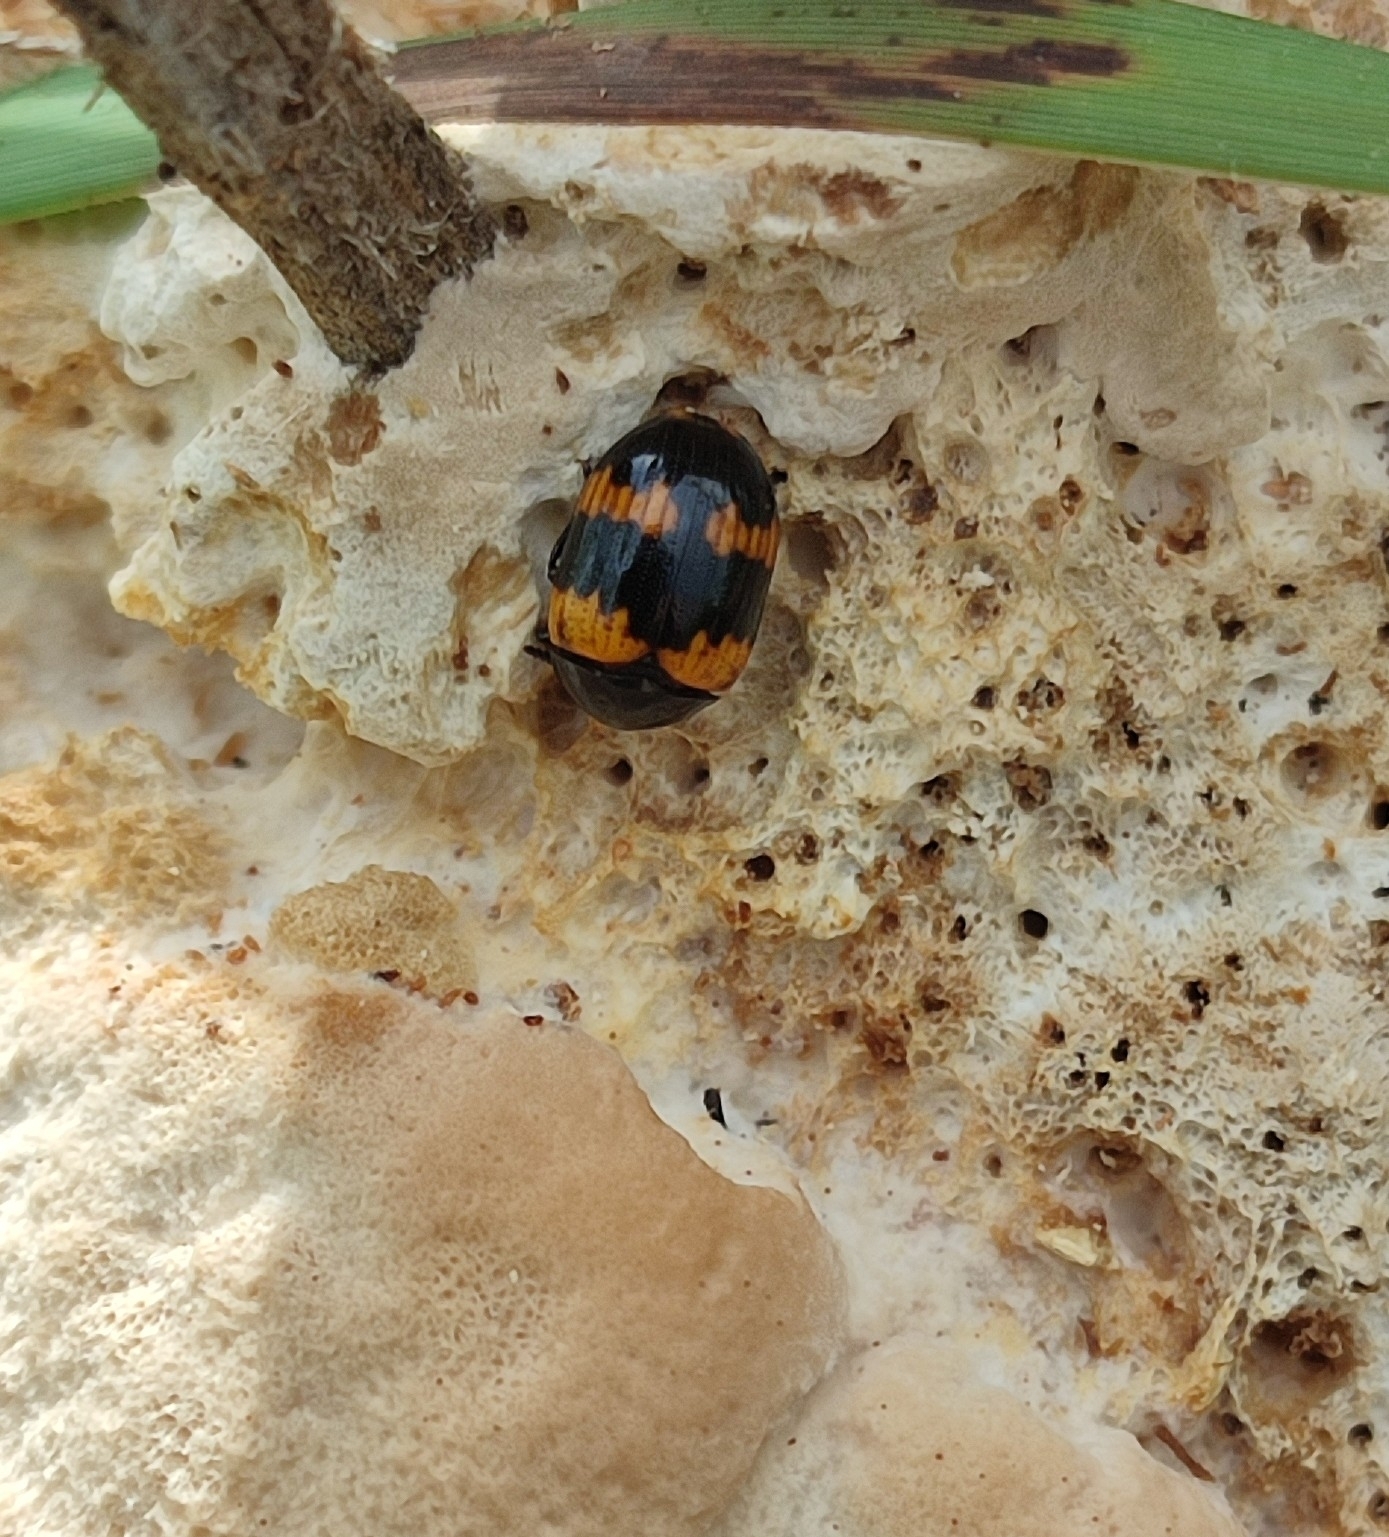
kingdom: Animalia
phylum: Arthropoda
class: Insecta
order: Coleoptera
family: Tenebrionidae
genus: Diaperis
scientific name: Diaperis boleti
